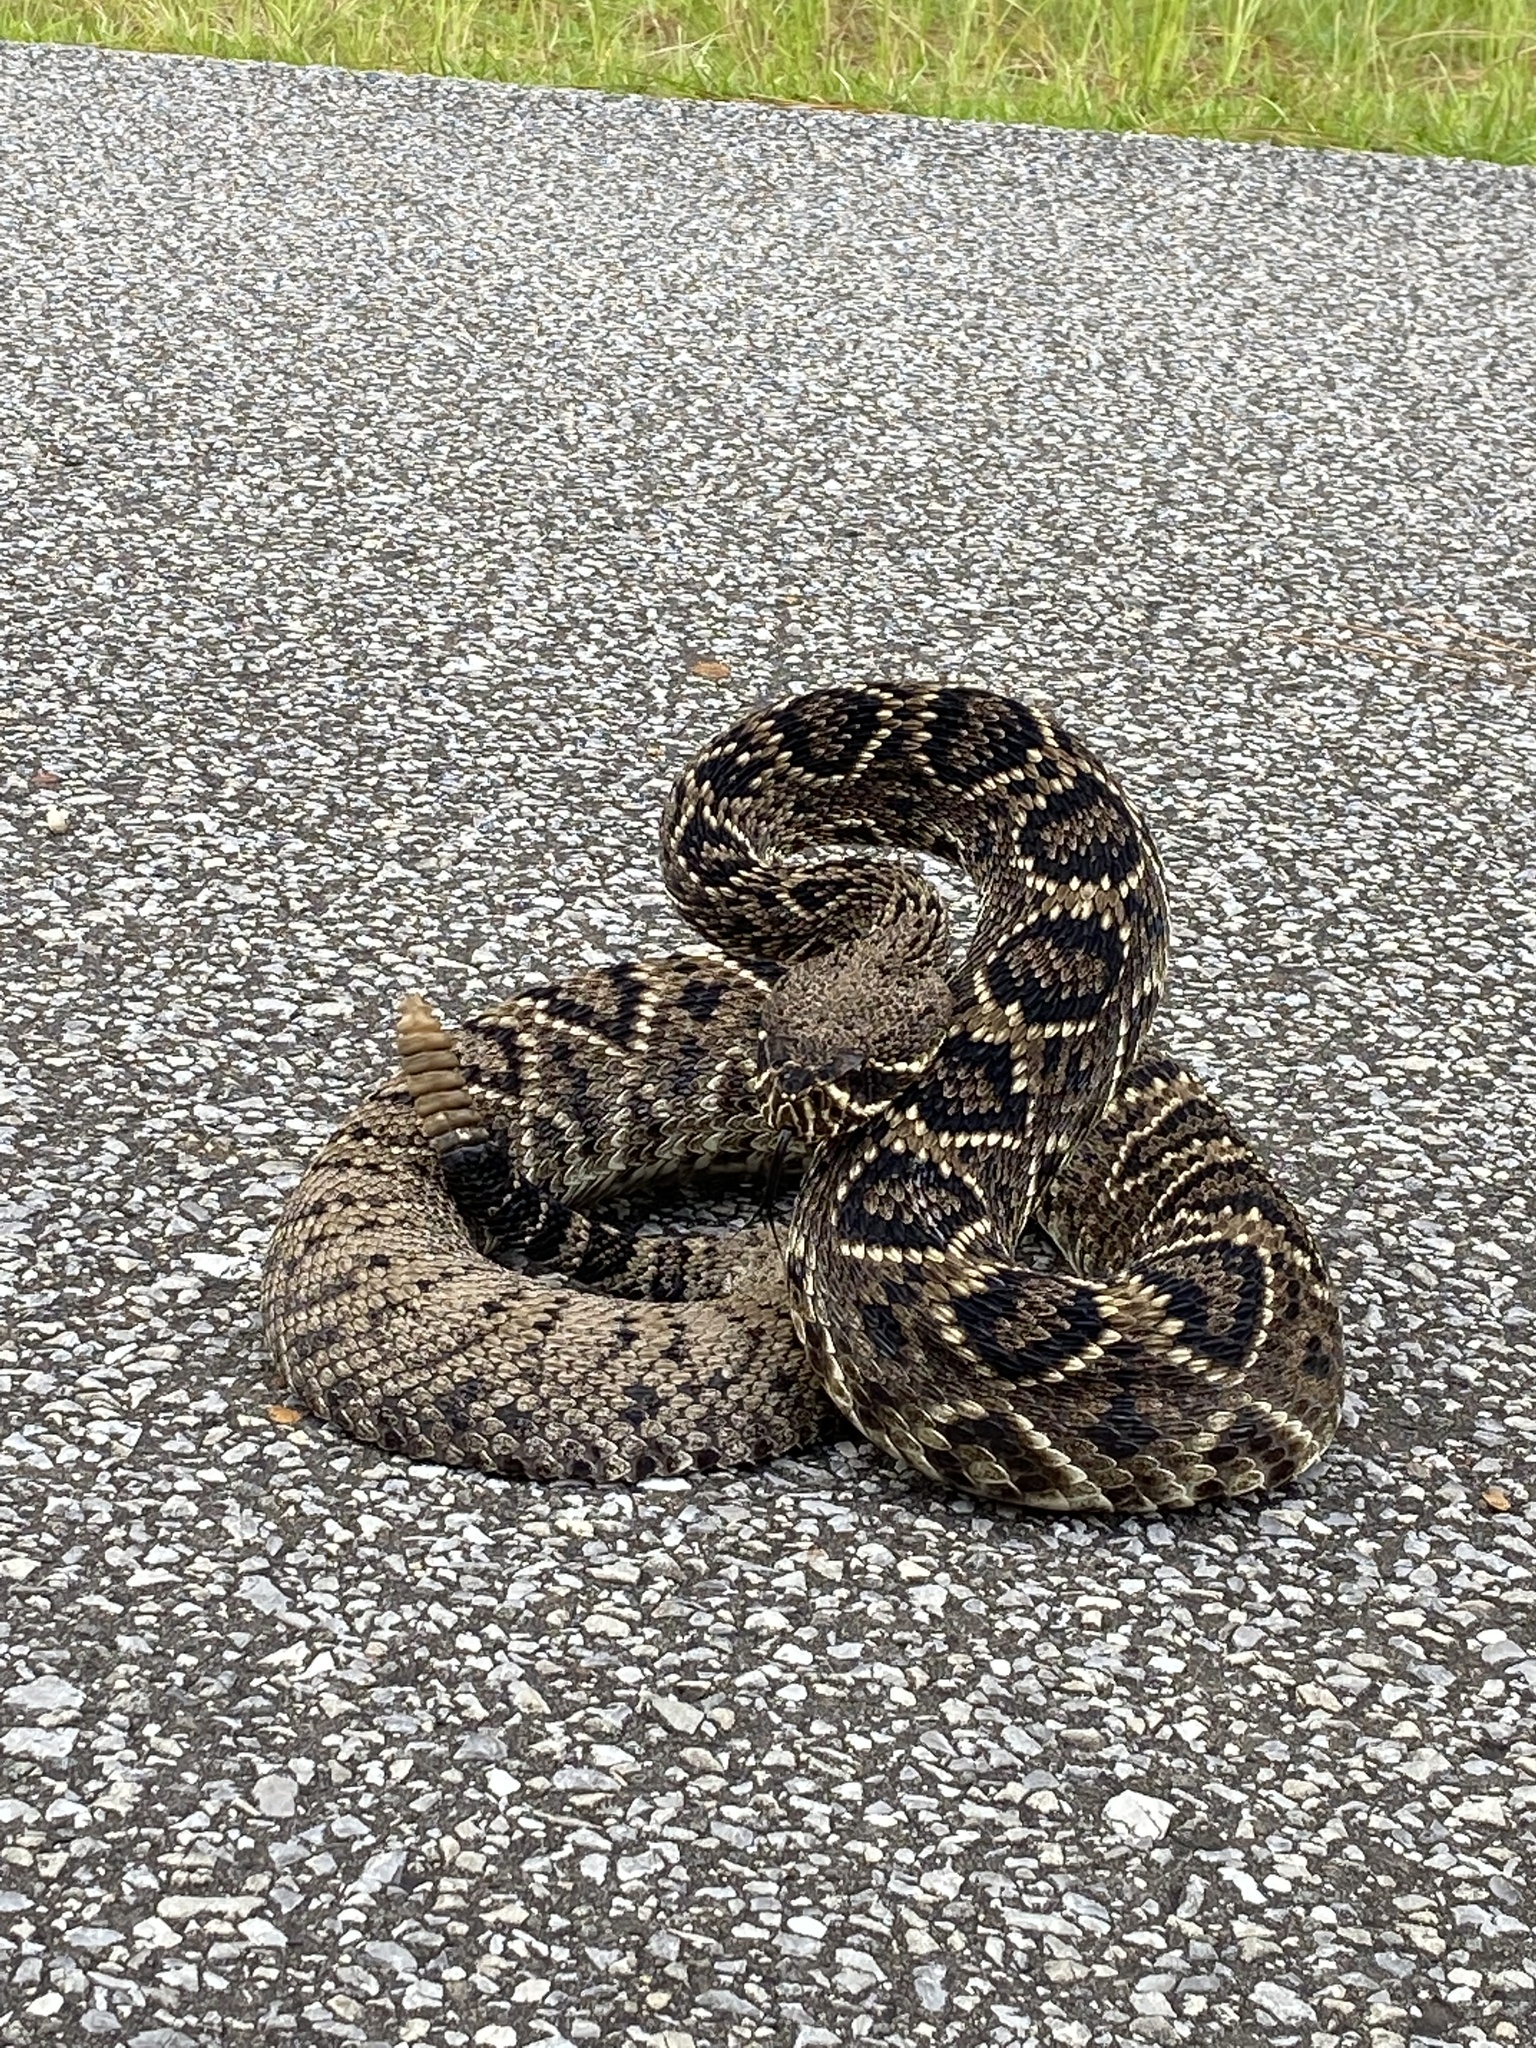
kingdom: Animalia
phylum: Chordata
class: Squamata
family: Viperidae
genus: Crotalus
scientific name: Crotalus adamanteus
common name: Eastern diamondback rattlesnake
